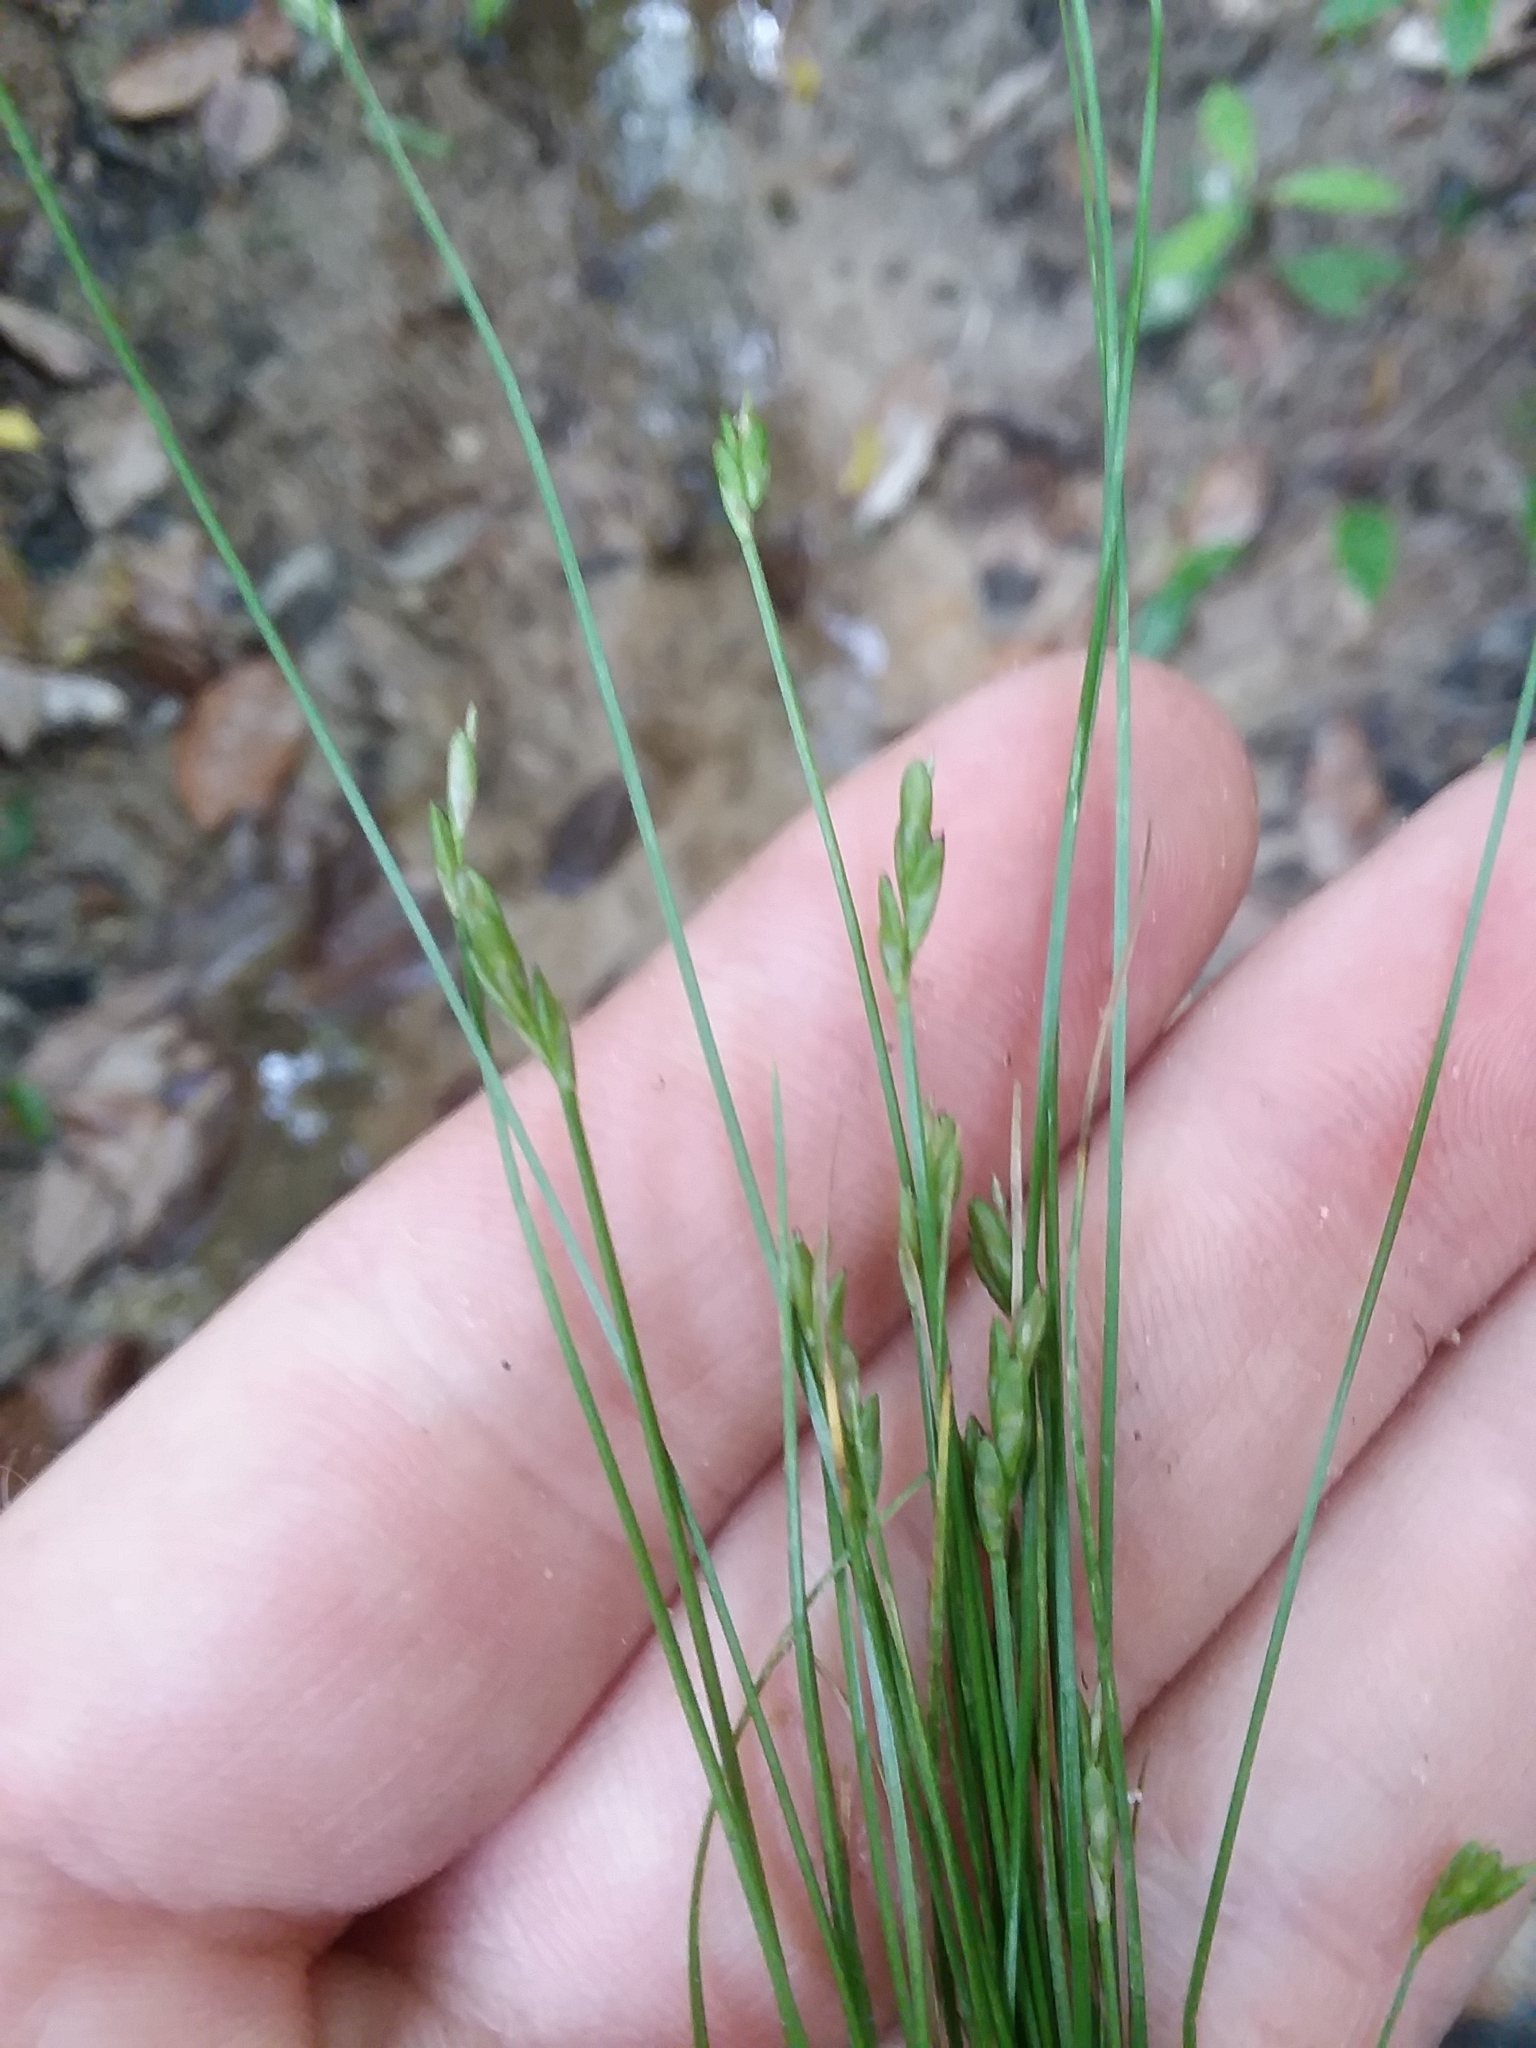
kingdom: Plantae
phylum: Tracheophyta
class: Liliopsida
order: Poales
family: Cyperaceae
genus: Carex
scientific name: Carex leptalea
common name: Bristly-stalked sedge
